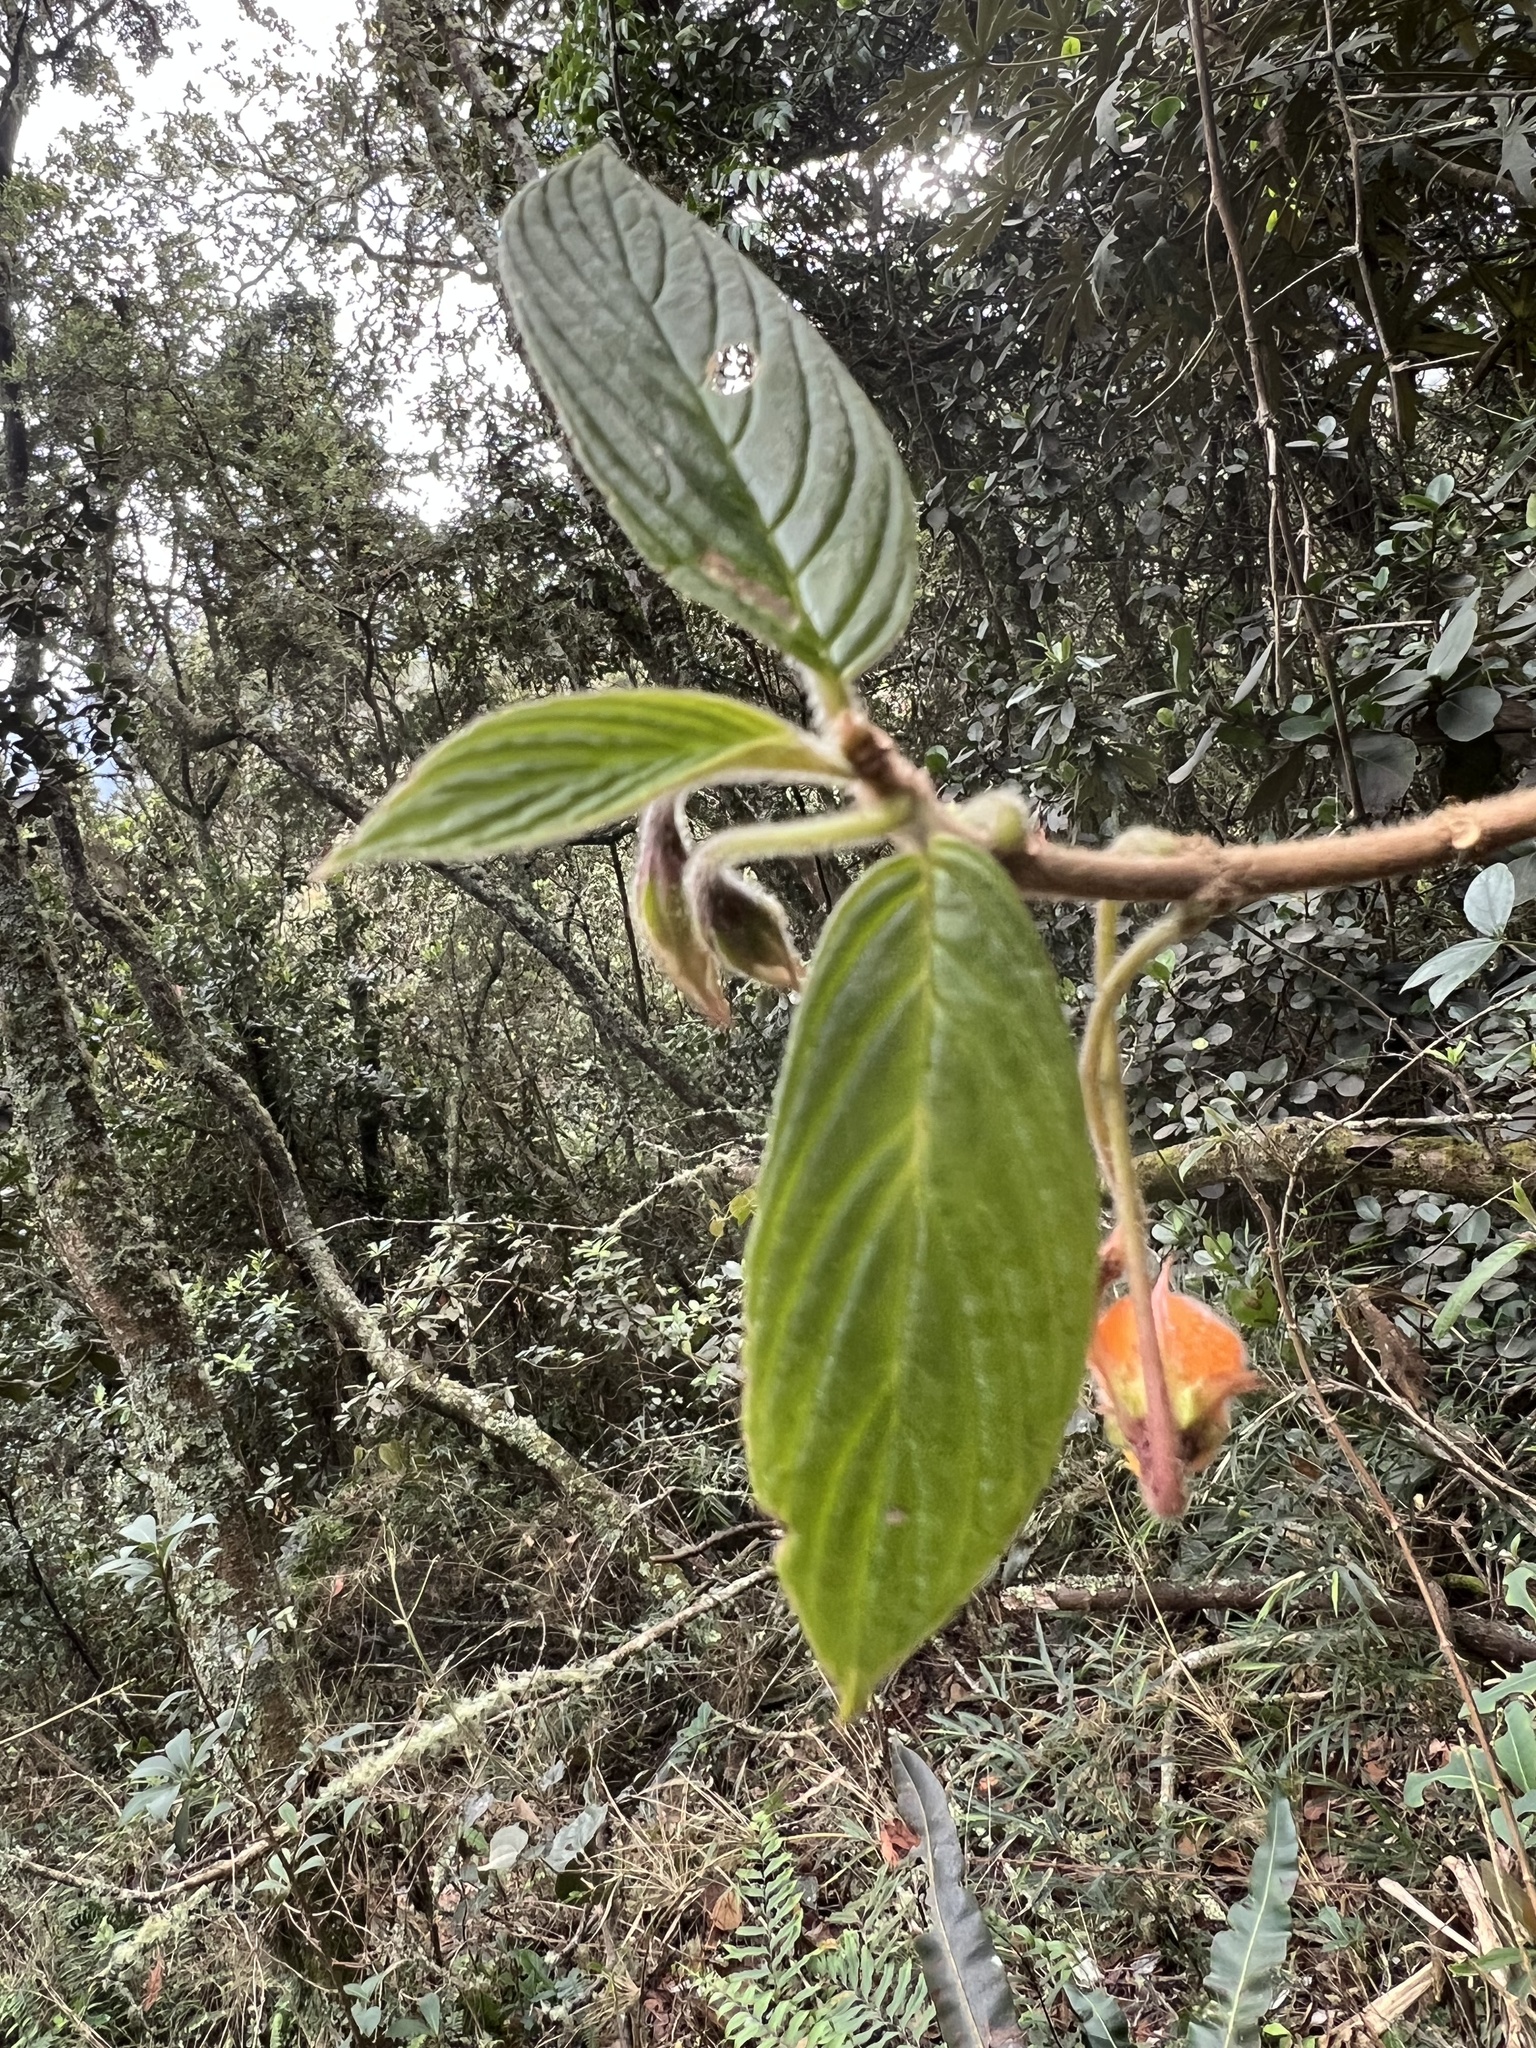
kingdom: Plantae
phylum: Tracheophyta
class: Magnoliopsida
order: Lamiales
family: Gesneriaceae
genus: Columnea
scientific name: Columnea strigosa
